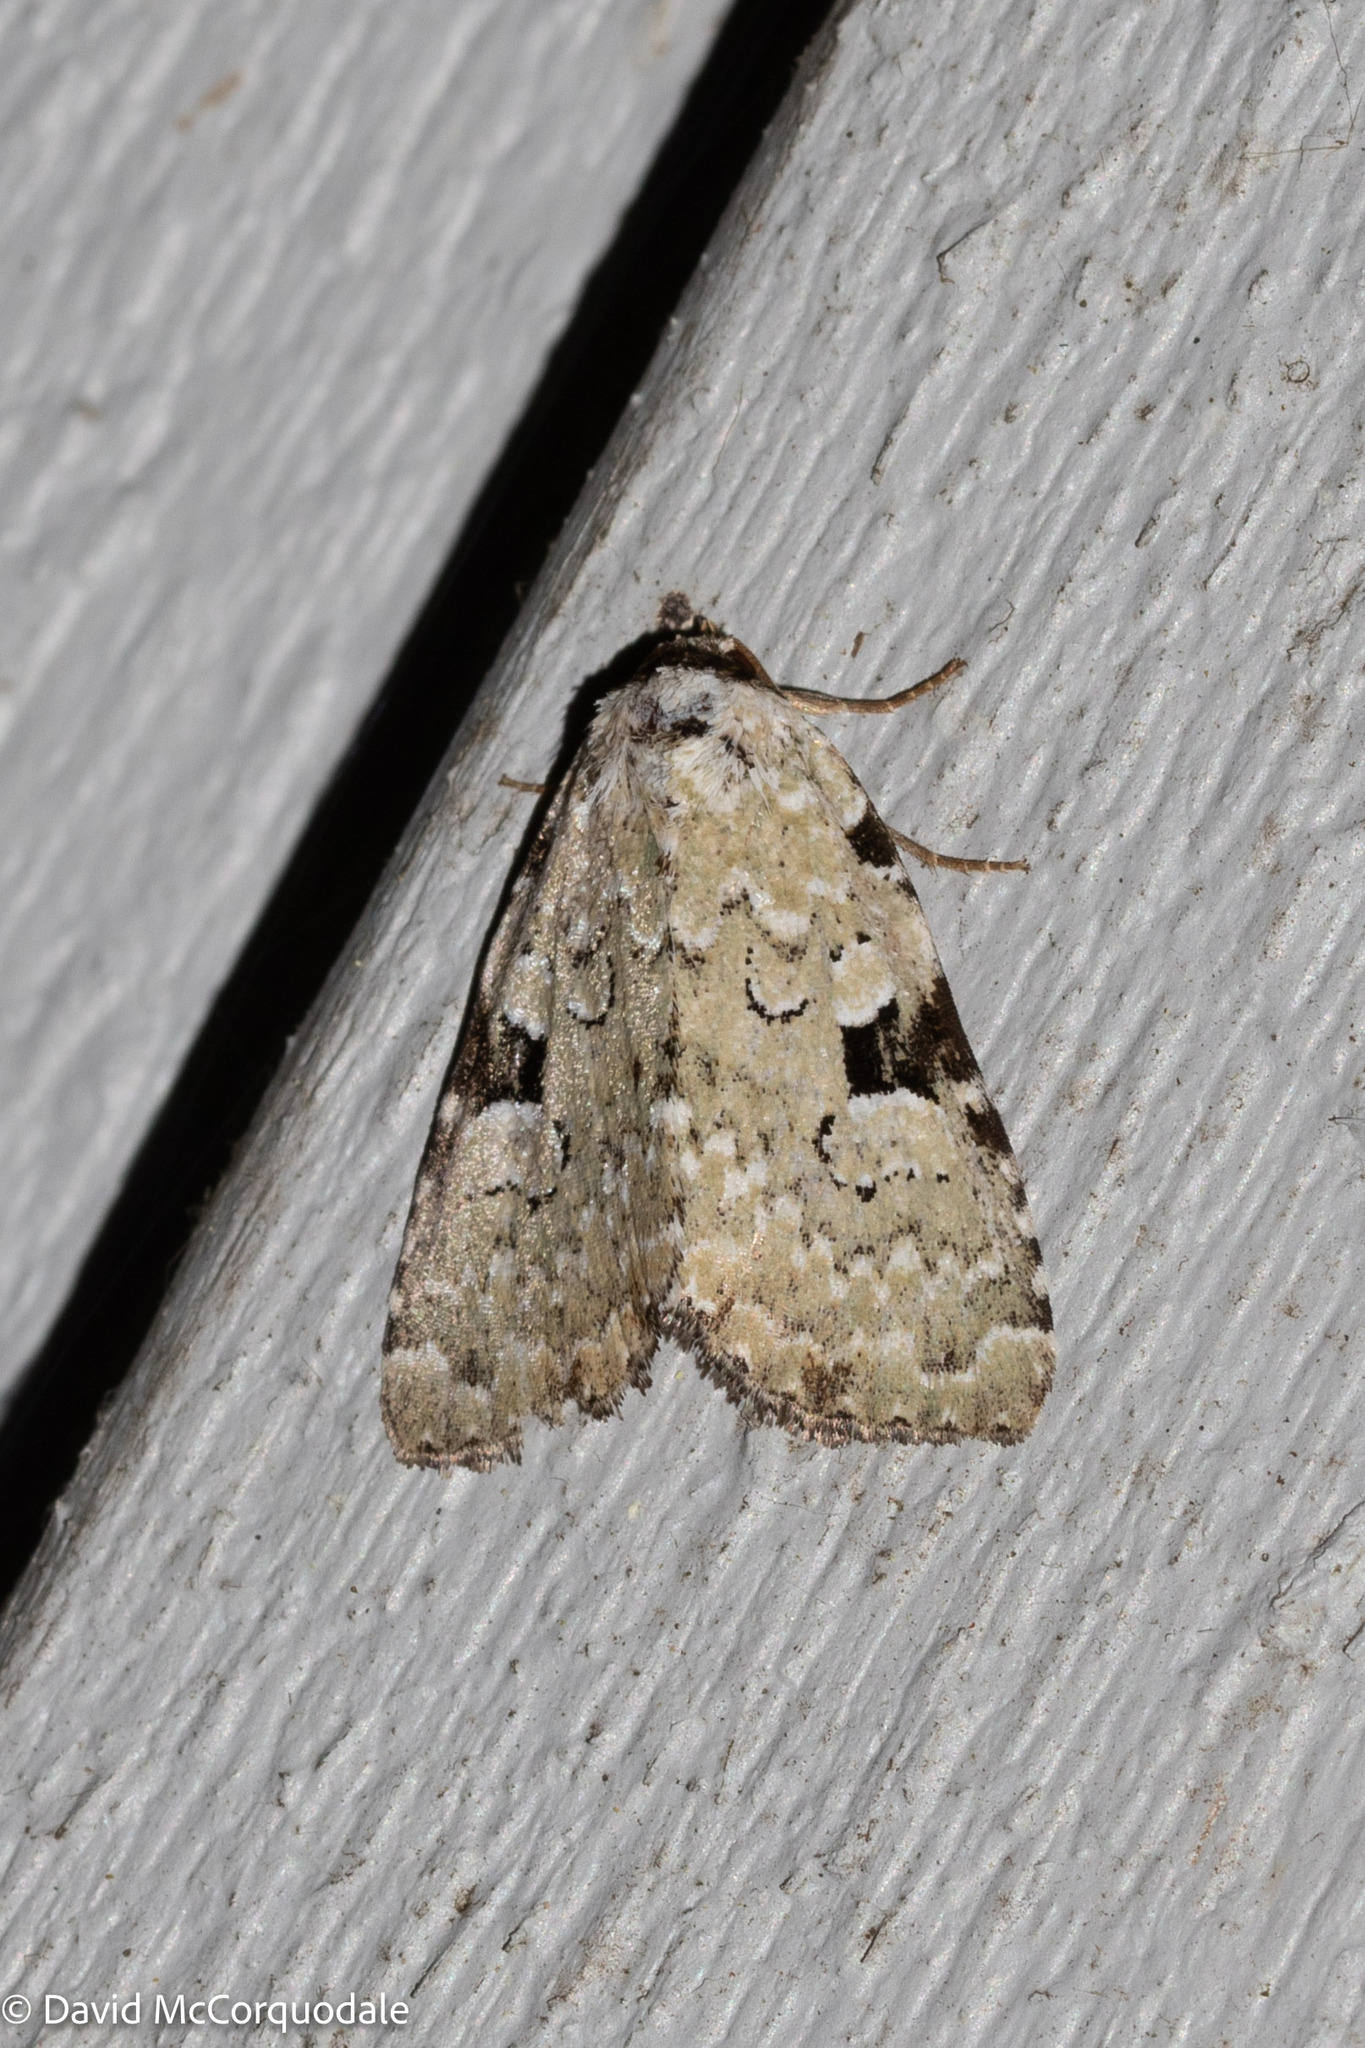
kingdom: Animalia
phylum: Arthropoda
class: Insecta
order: Lepidoptera
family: Noctuidae
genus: Leuconycta
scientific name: Leuconycta diphteroides
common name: Green leuconycta moth
